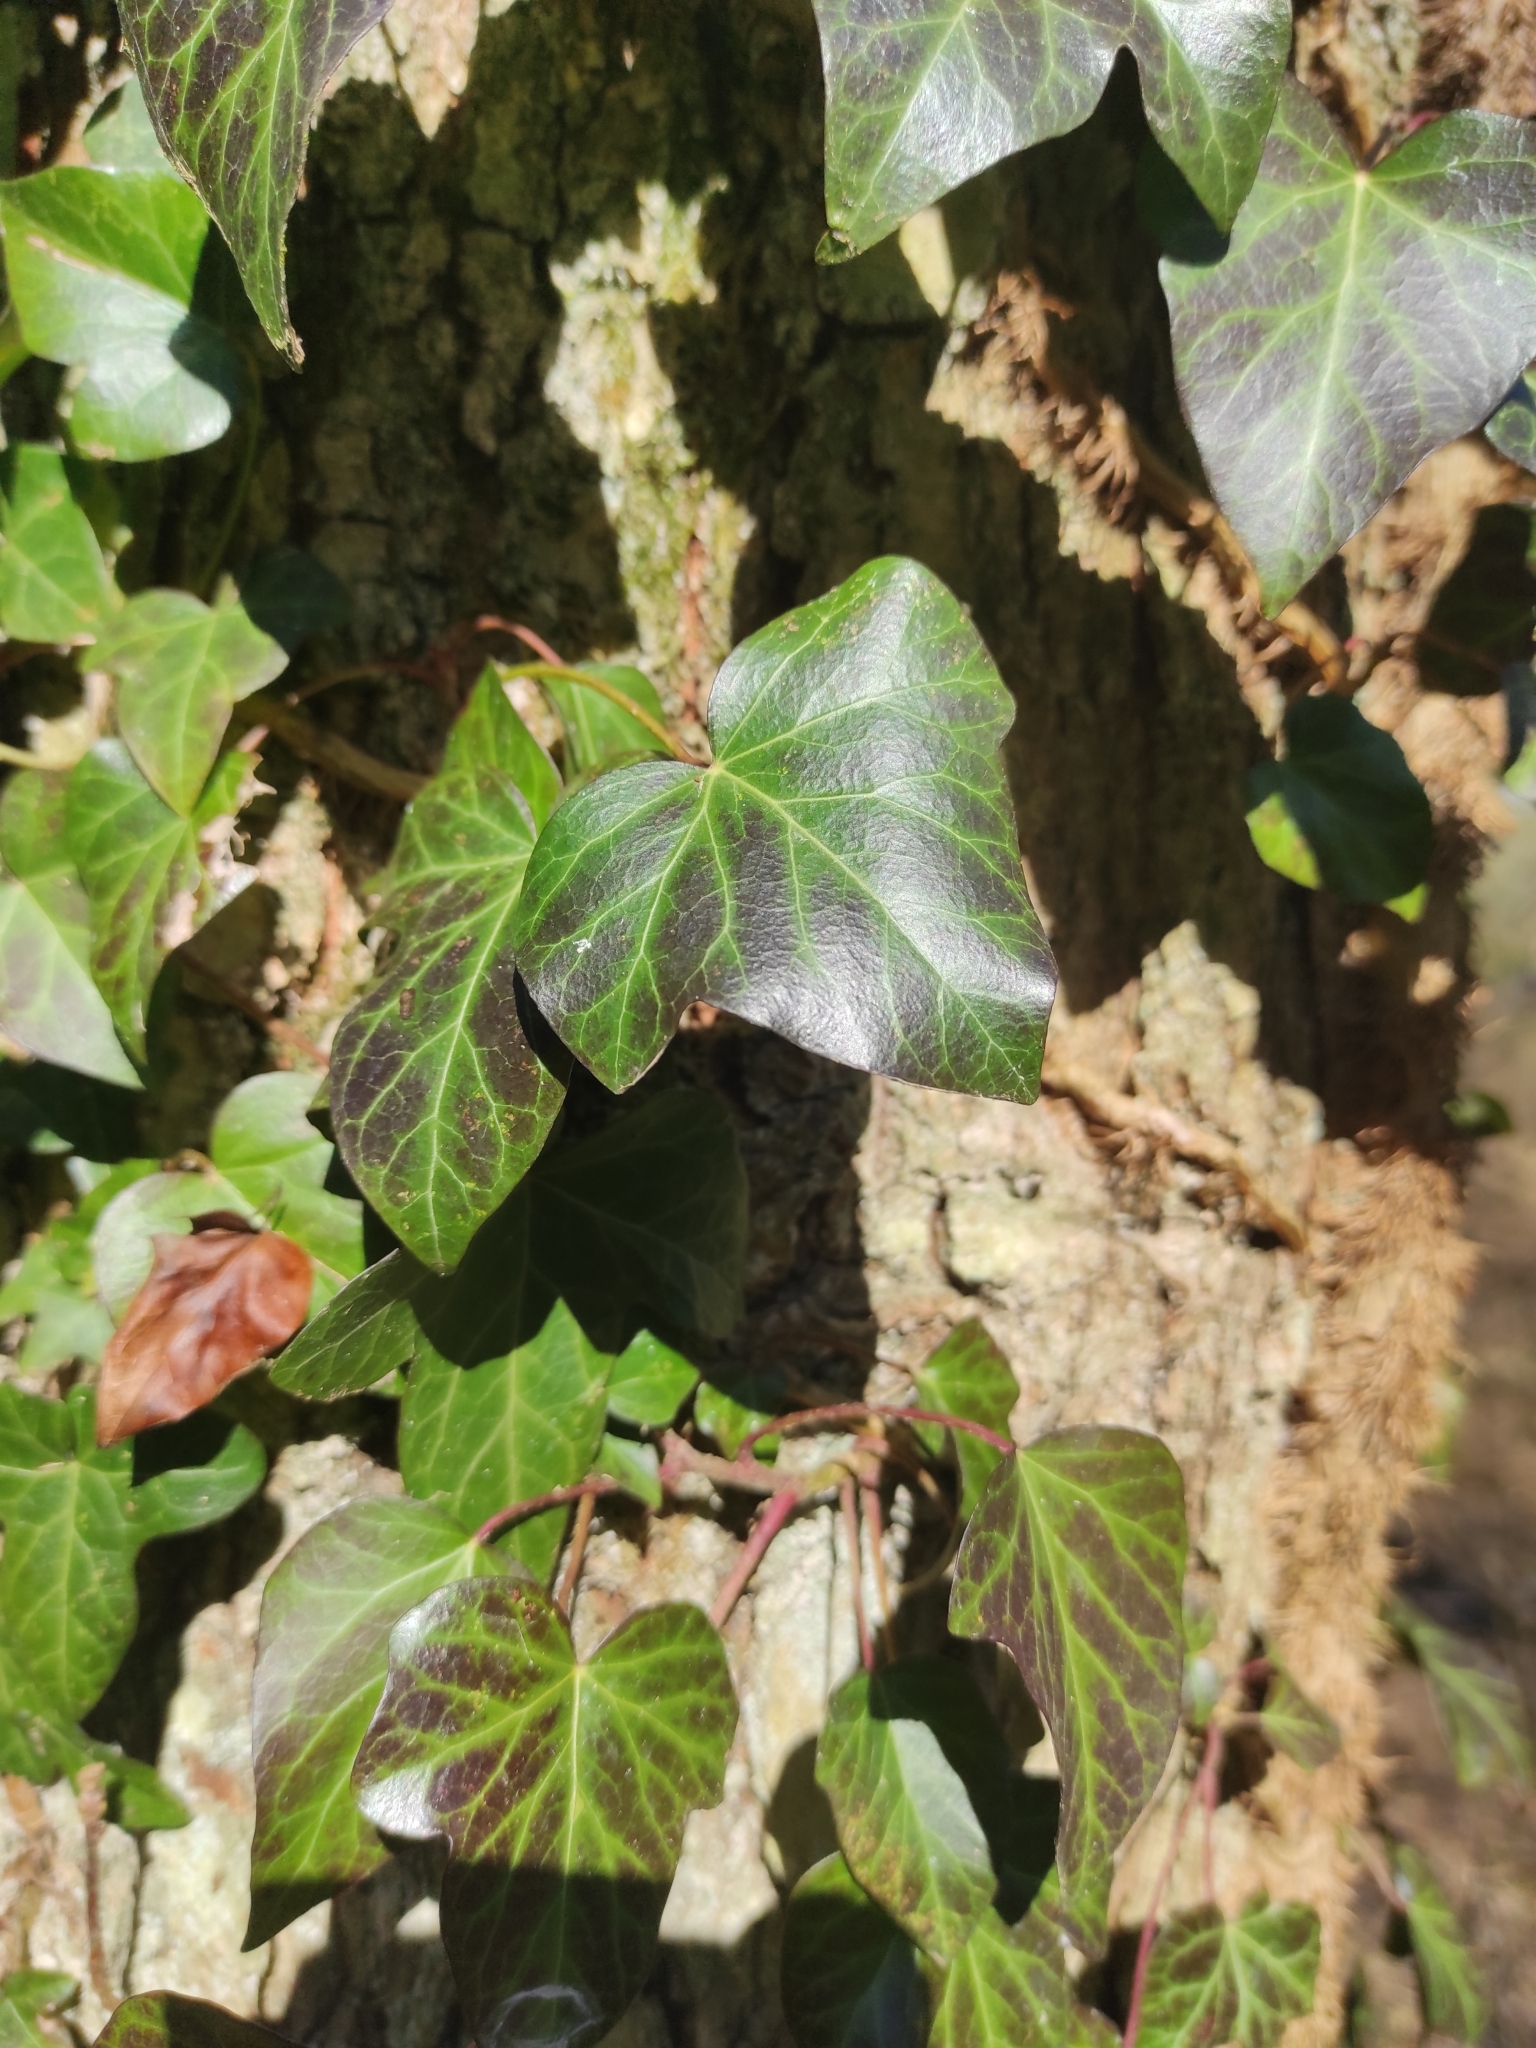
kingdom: Plantae
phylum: Tracheophyta
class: Magnoliopsida
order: Apiales
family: Araliaceae
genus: Hedera
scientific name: Hedera helix
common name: Ivy
